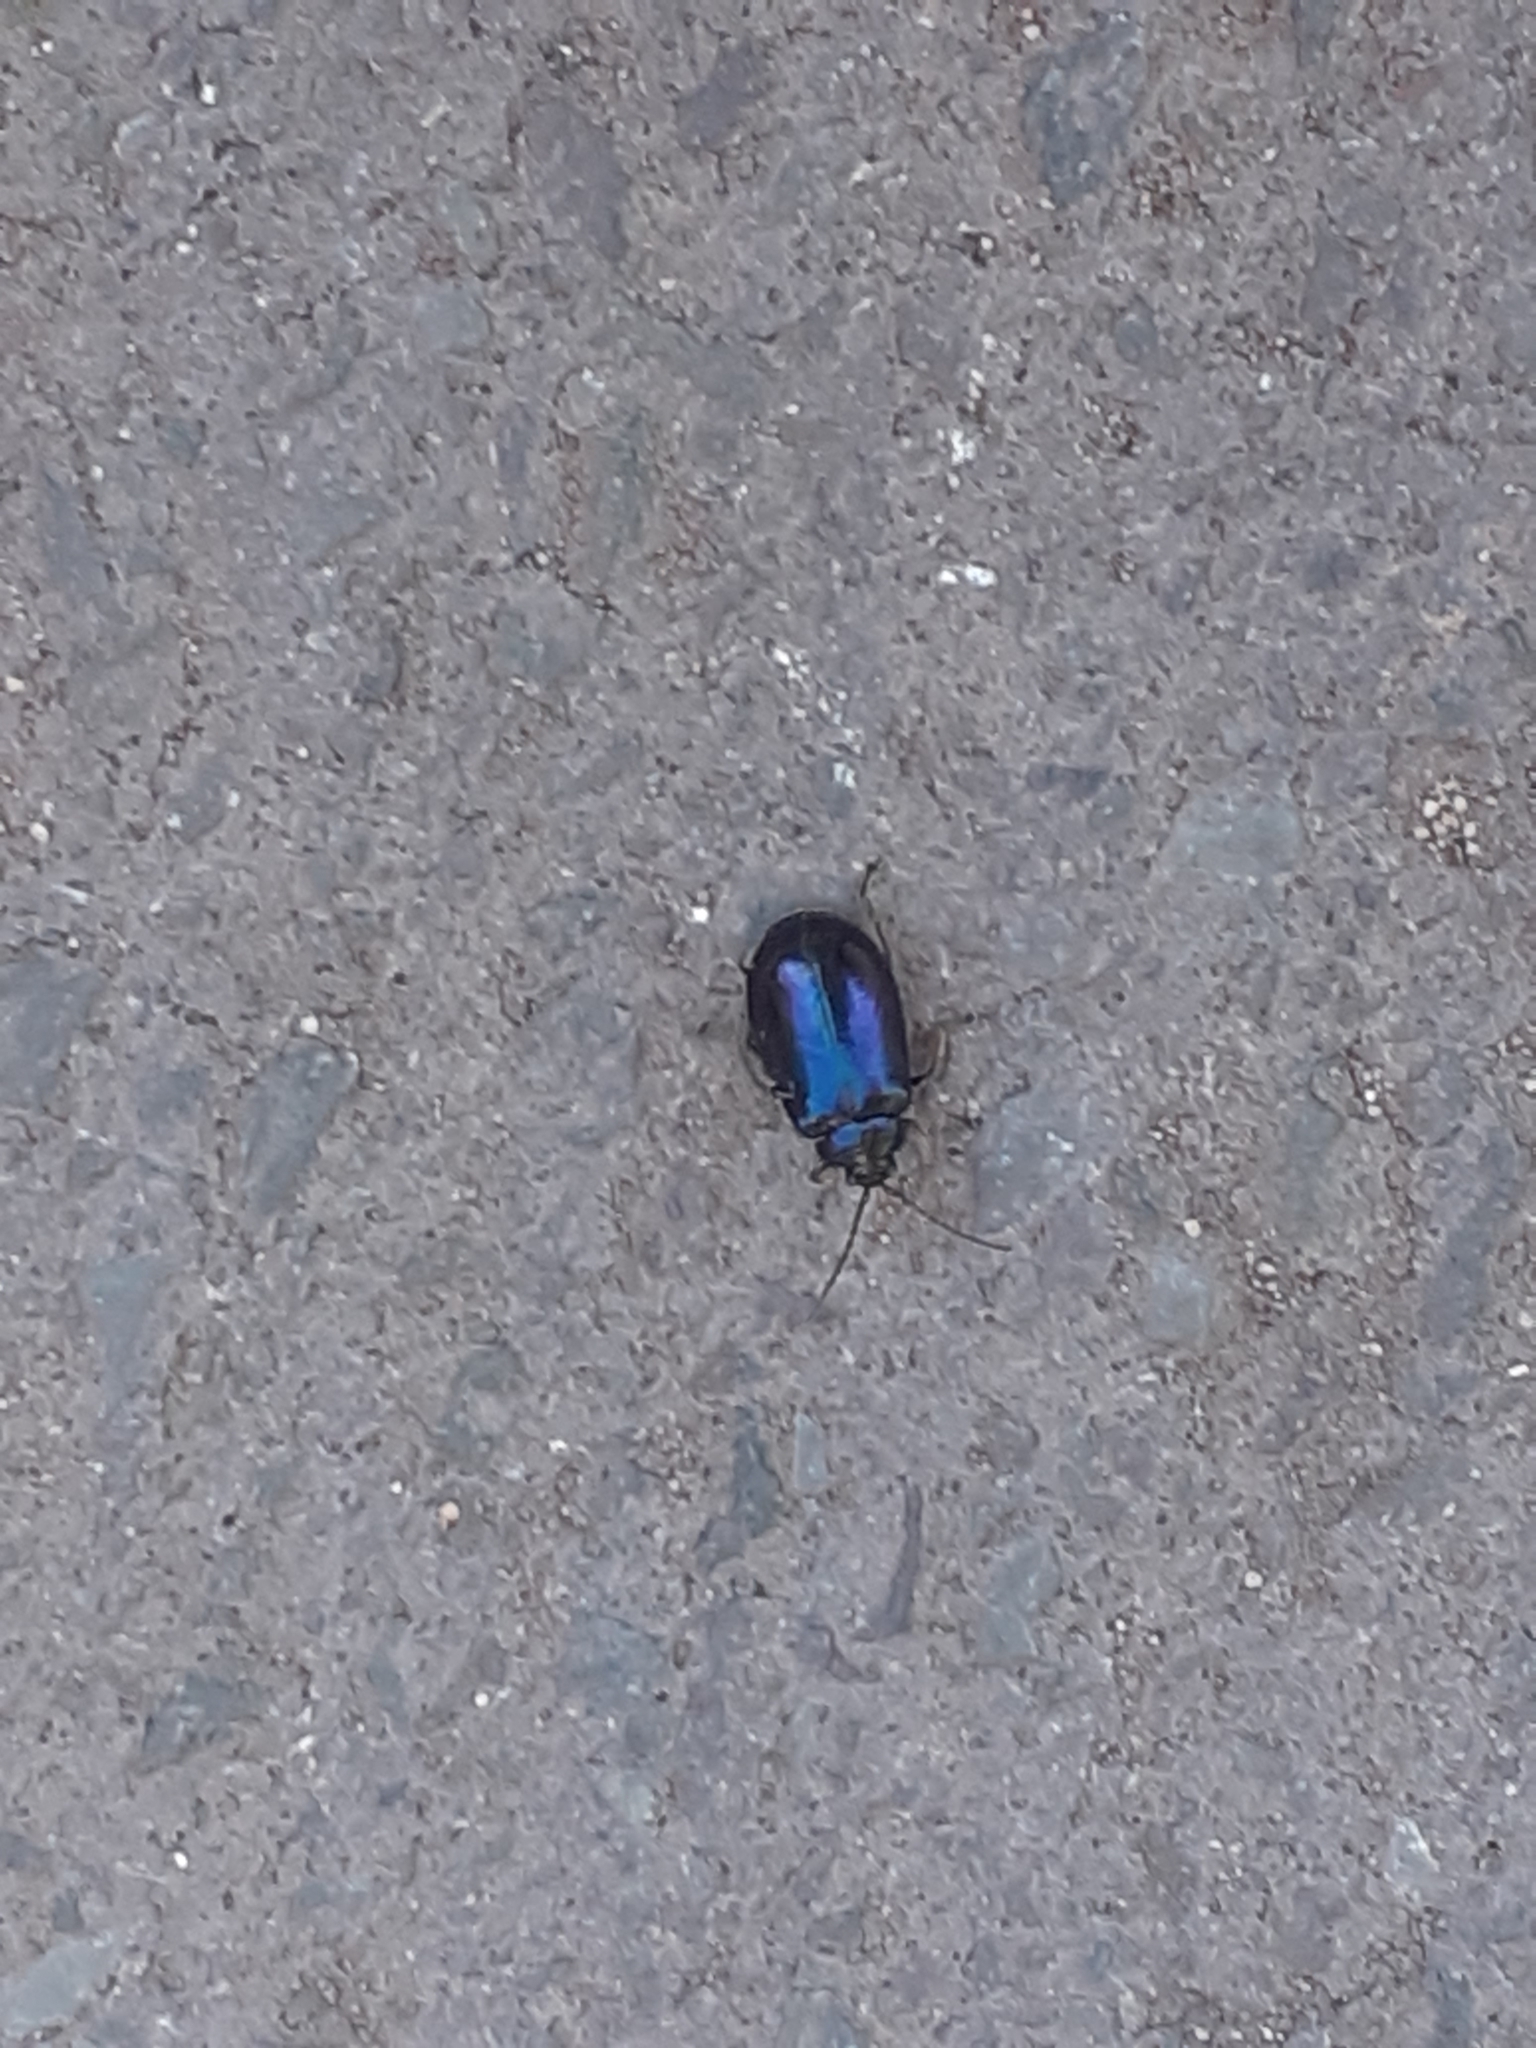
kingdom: Animalia
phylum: Arthropoda
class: Insecta
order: Coleoptera
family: Chrysomelidae
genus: Agelastica
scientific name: Agelastica alni
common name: Alder leaf beetle
